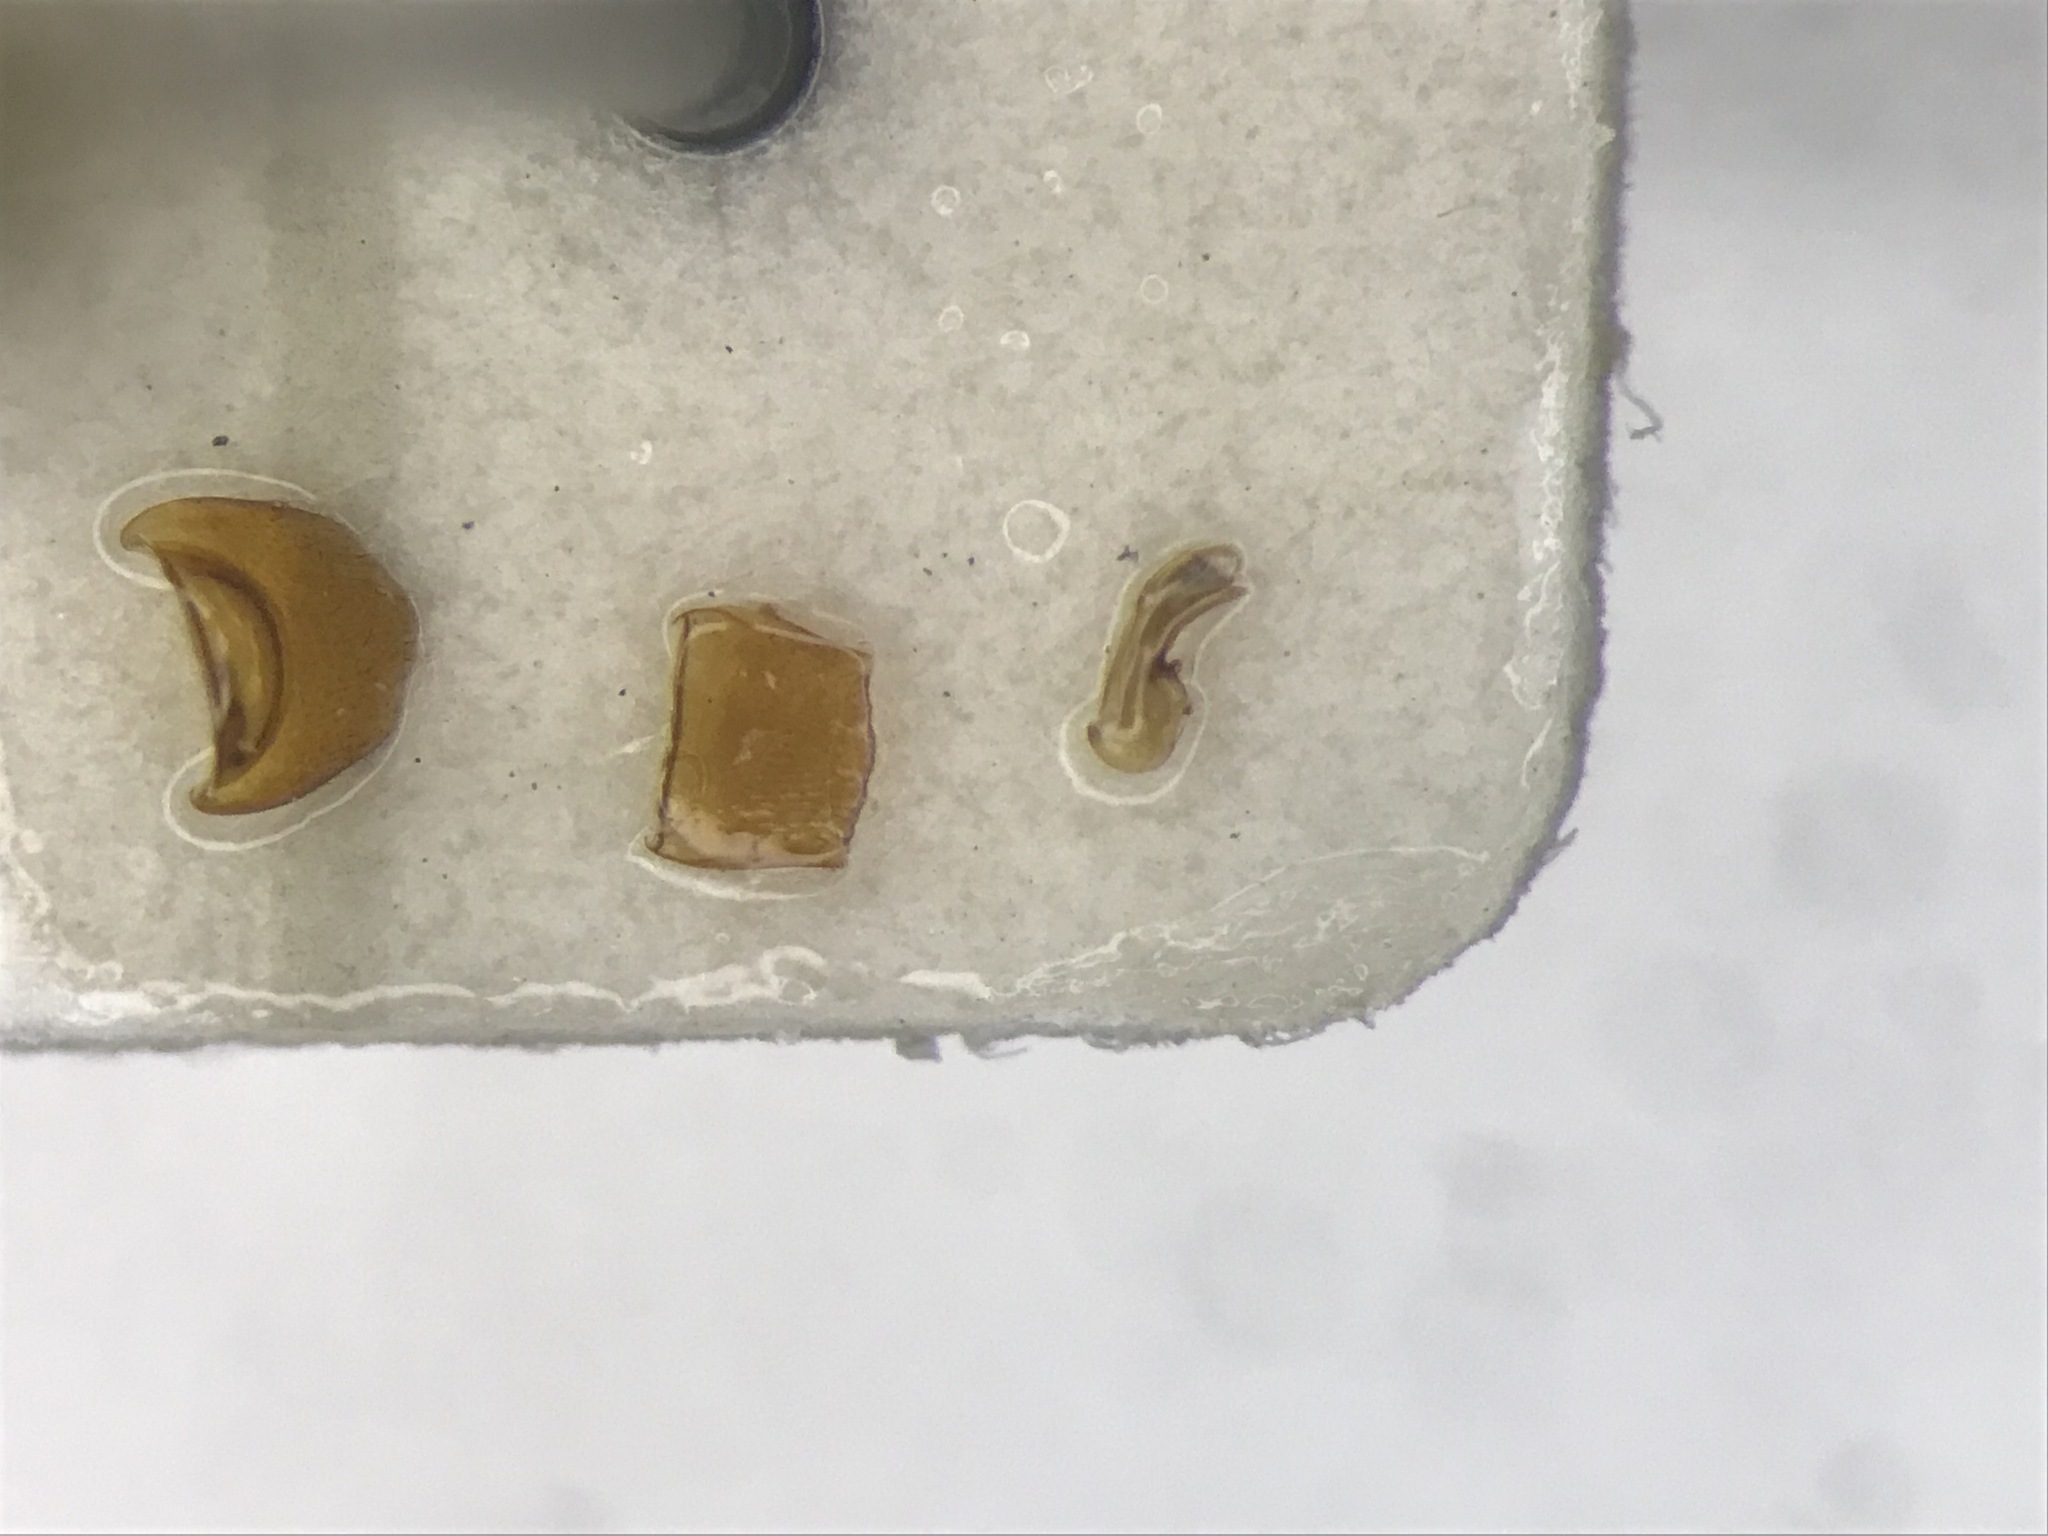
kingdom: Animalia
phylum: Arthropoda
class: Insecta
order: Coleoptera
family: Staphylinidae
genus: Ilyobates
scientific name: Ilyobates bennetti
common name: Rove beetle
